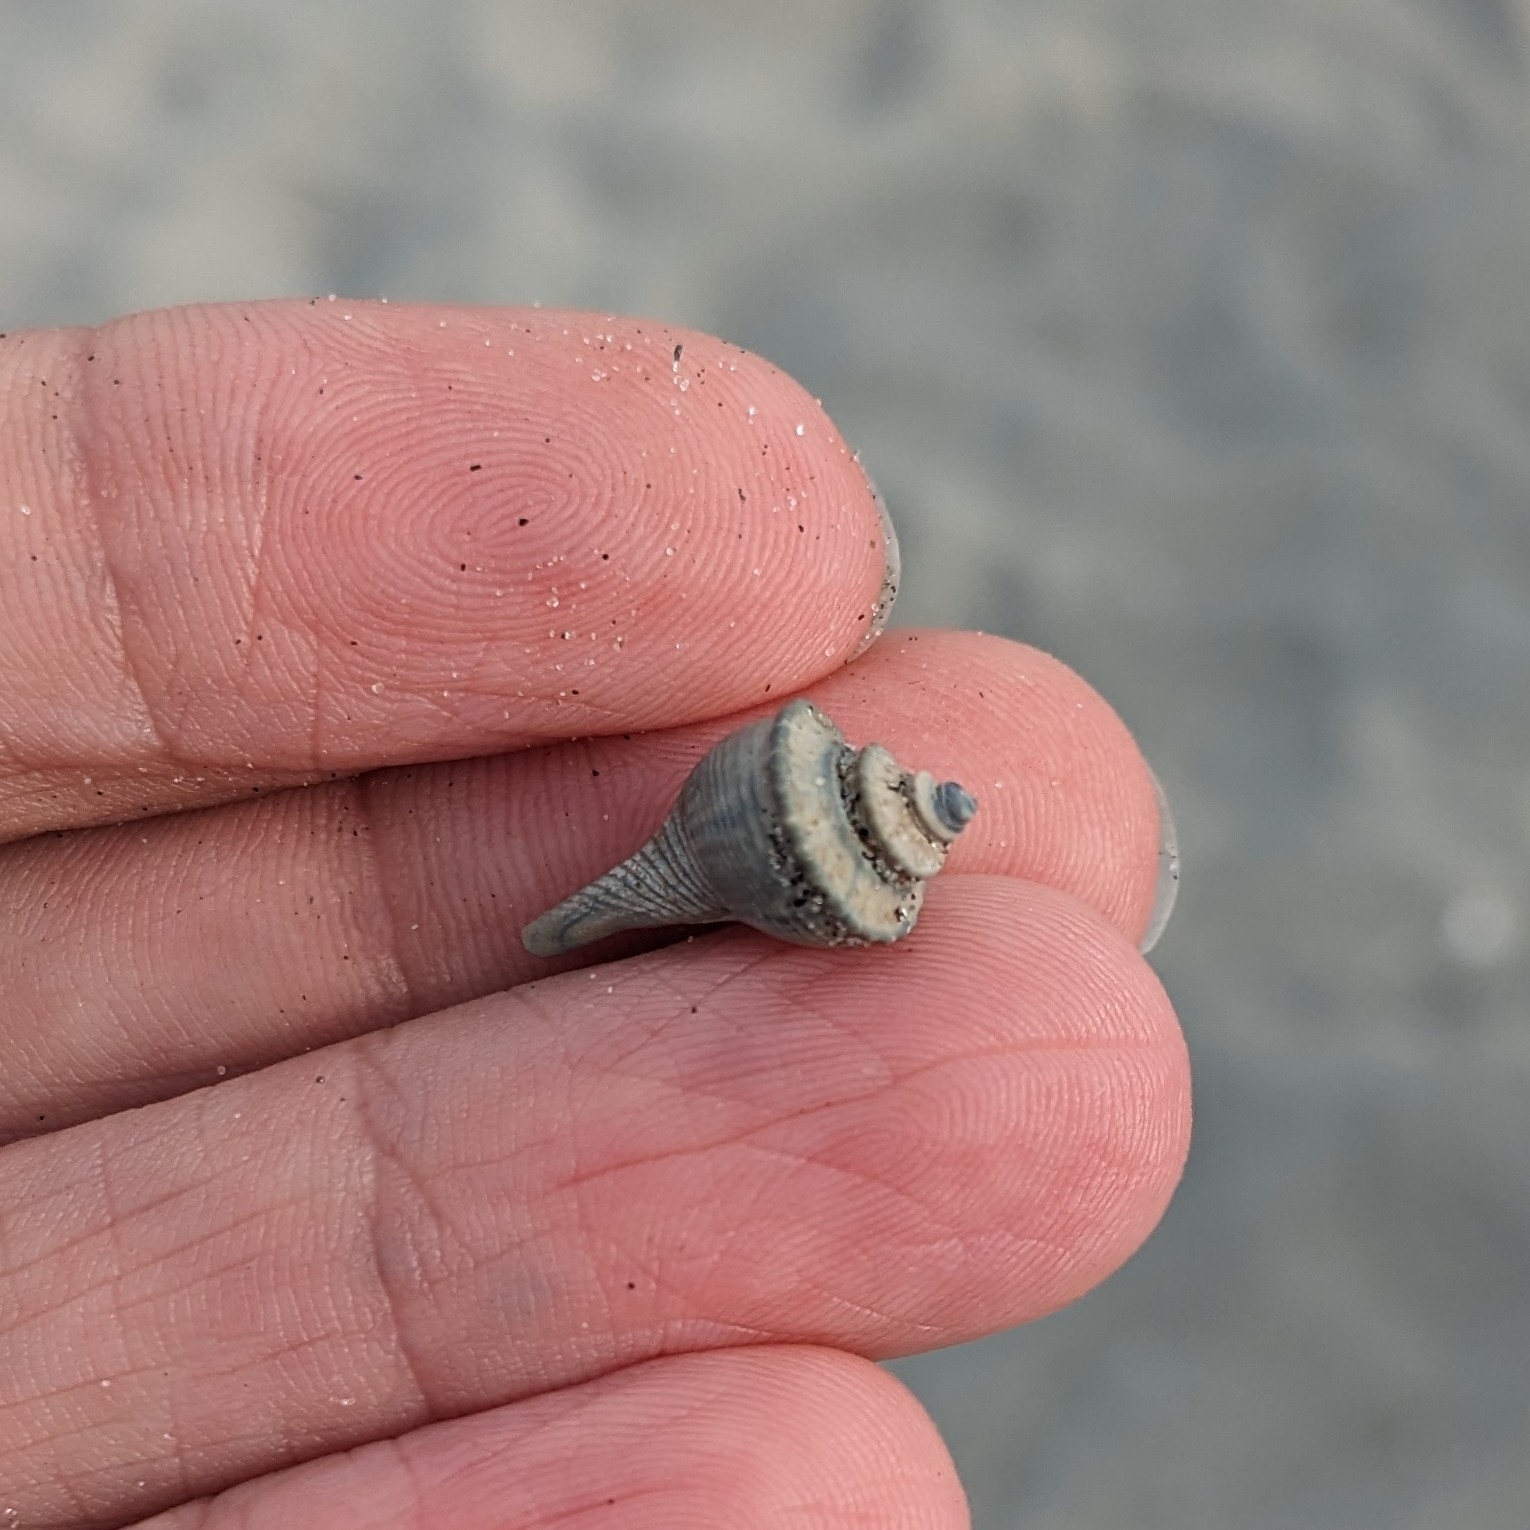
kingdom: Animalia
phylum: Mollusca
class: Gastropoda
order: Neogastropoda
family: Busyconidae
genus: Busycotypus
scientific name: Busycotypus canaliculatus
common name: Channeled whelk
